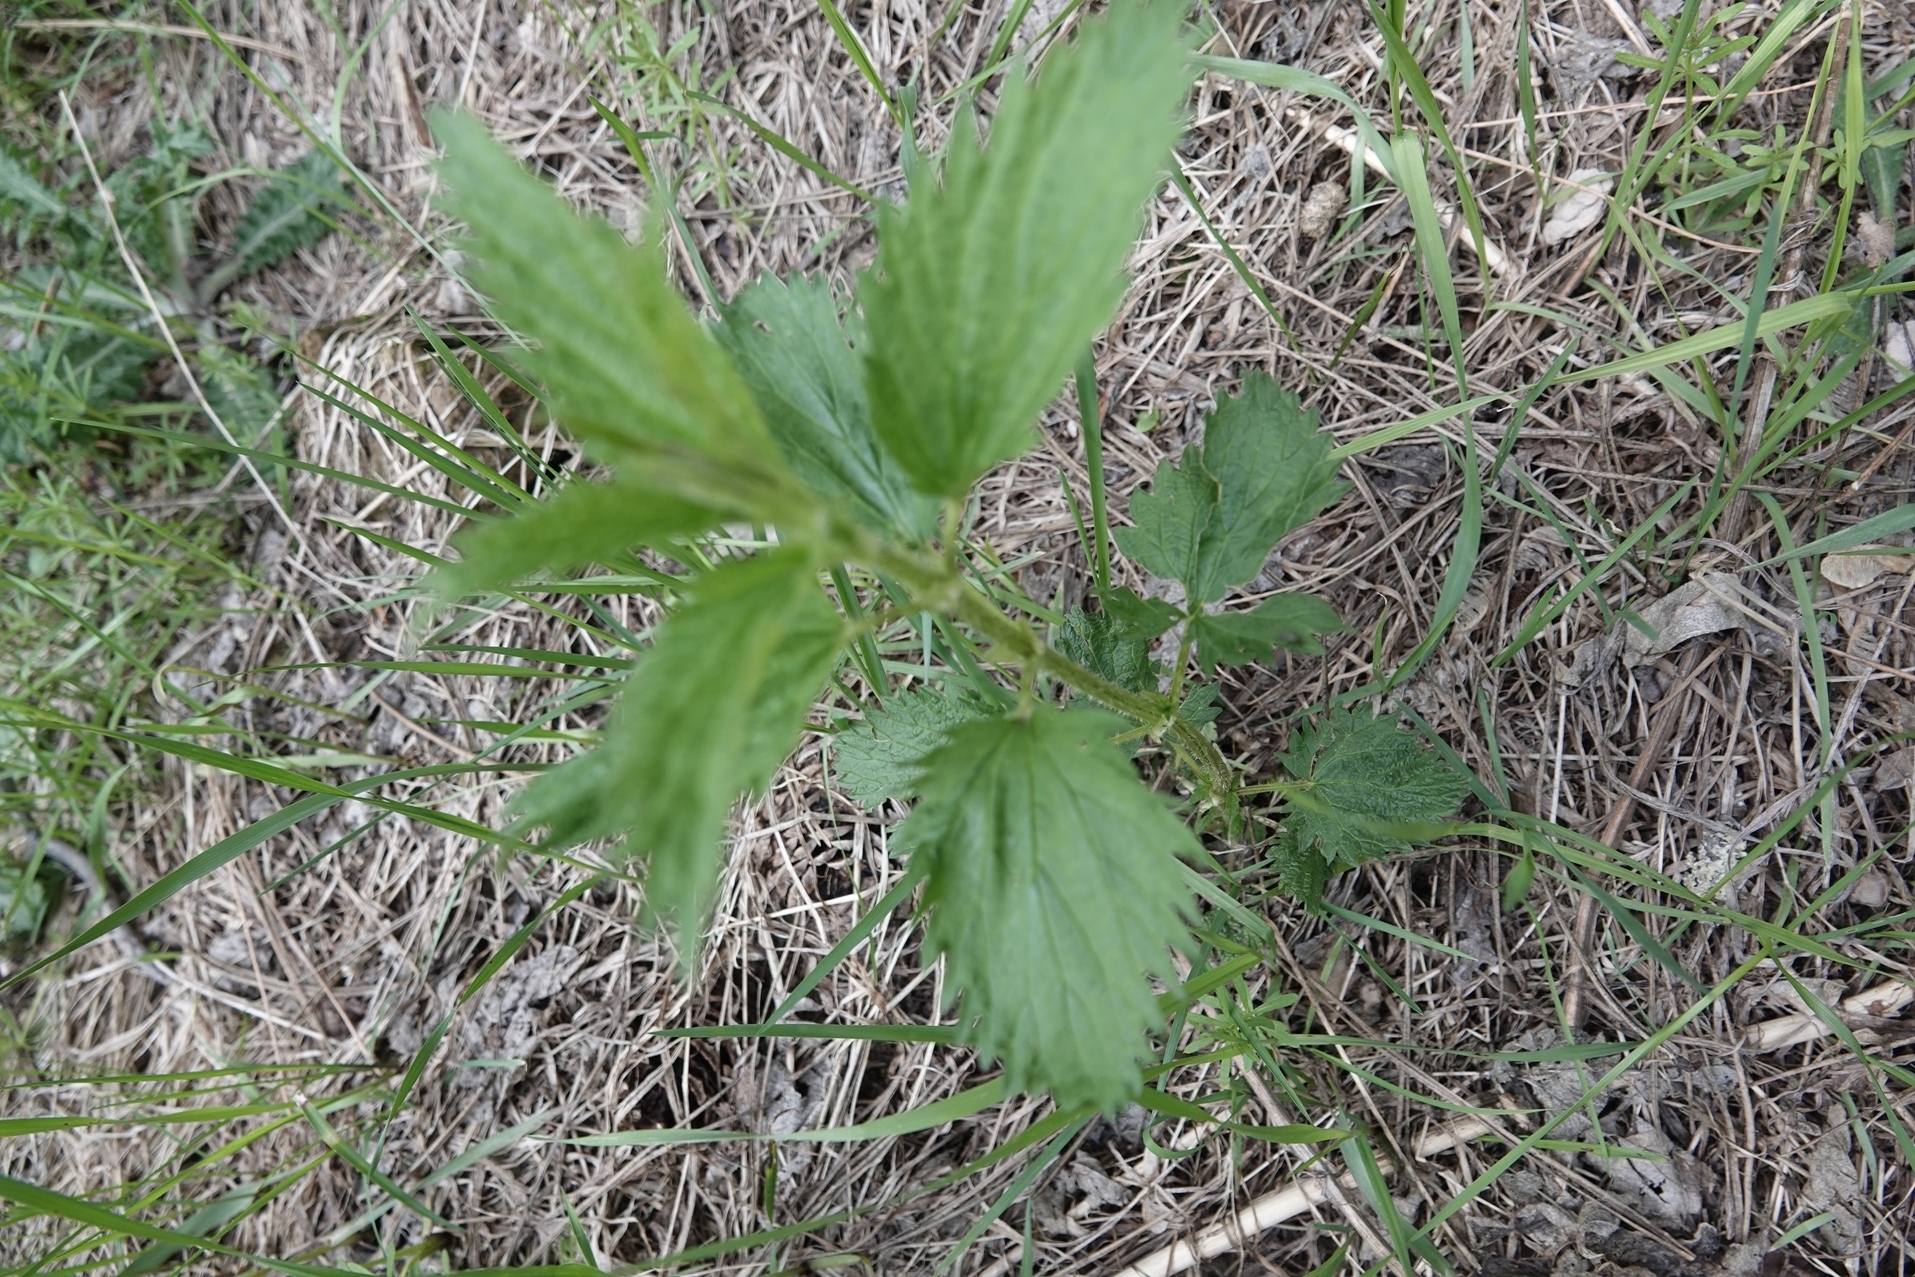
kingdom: Plantae
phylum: Tracheophyta
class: Magnoliopsida
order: Rosales
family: Urticaceae
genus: Urtica
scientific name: Urtica dioica
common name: Common nettle
